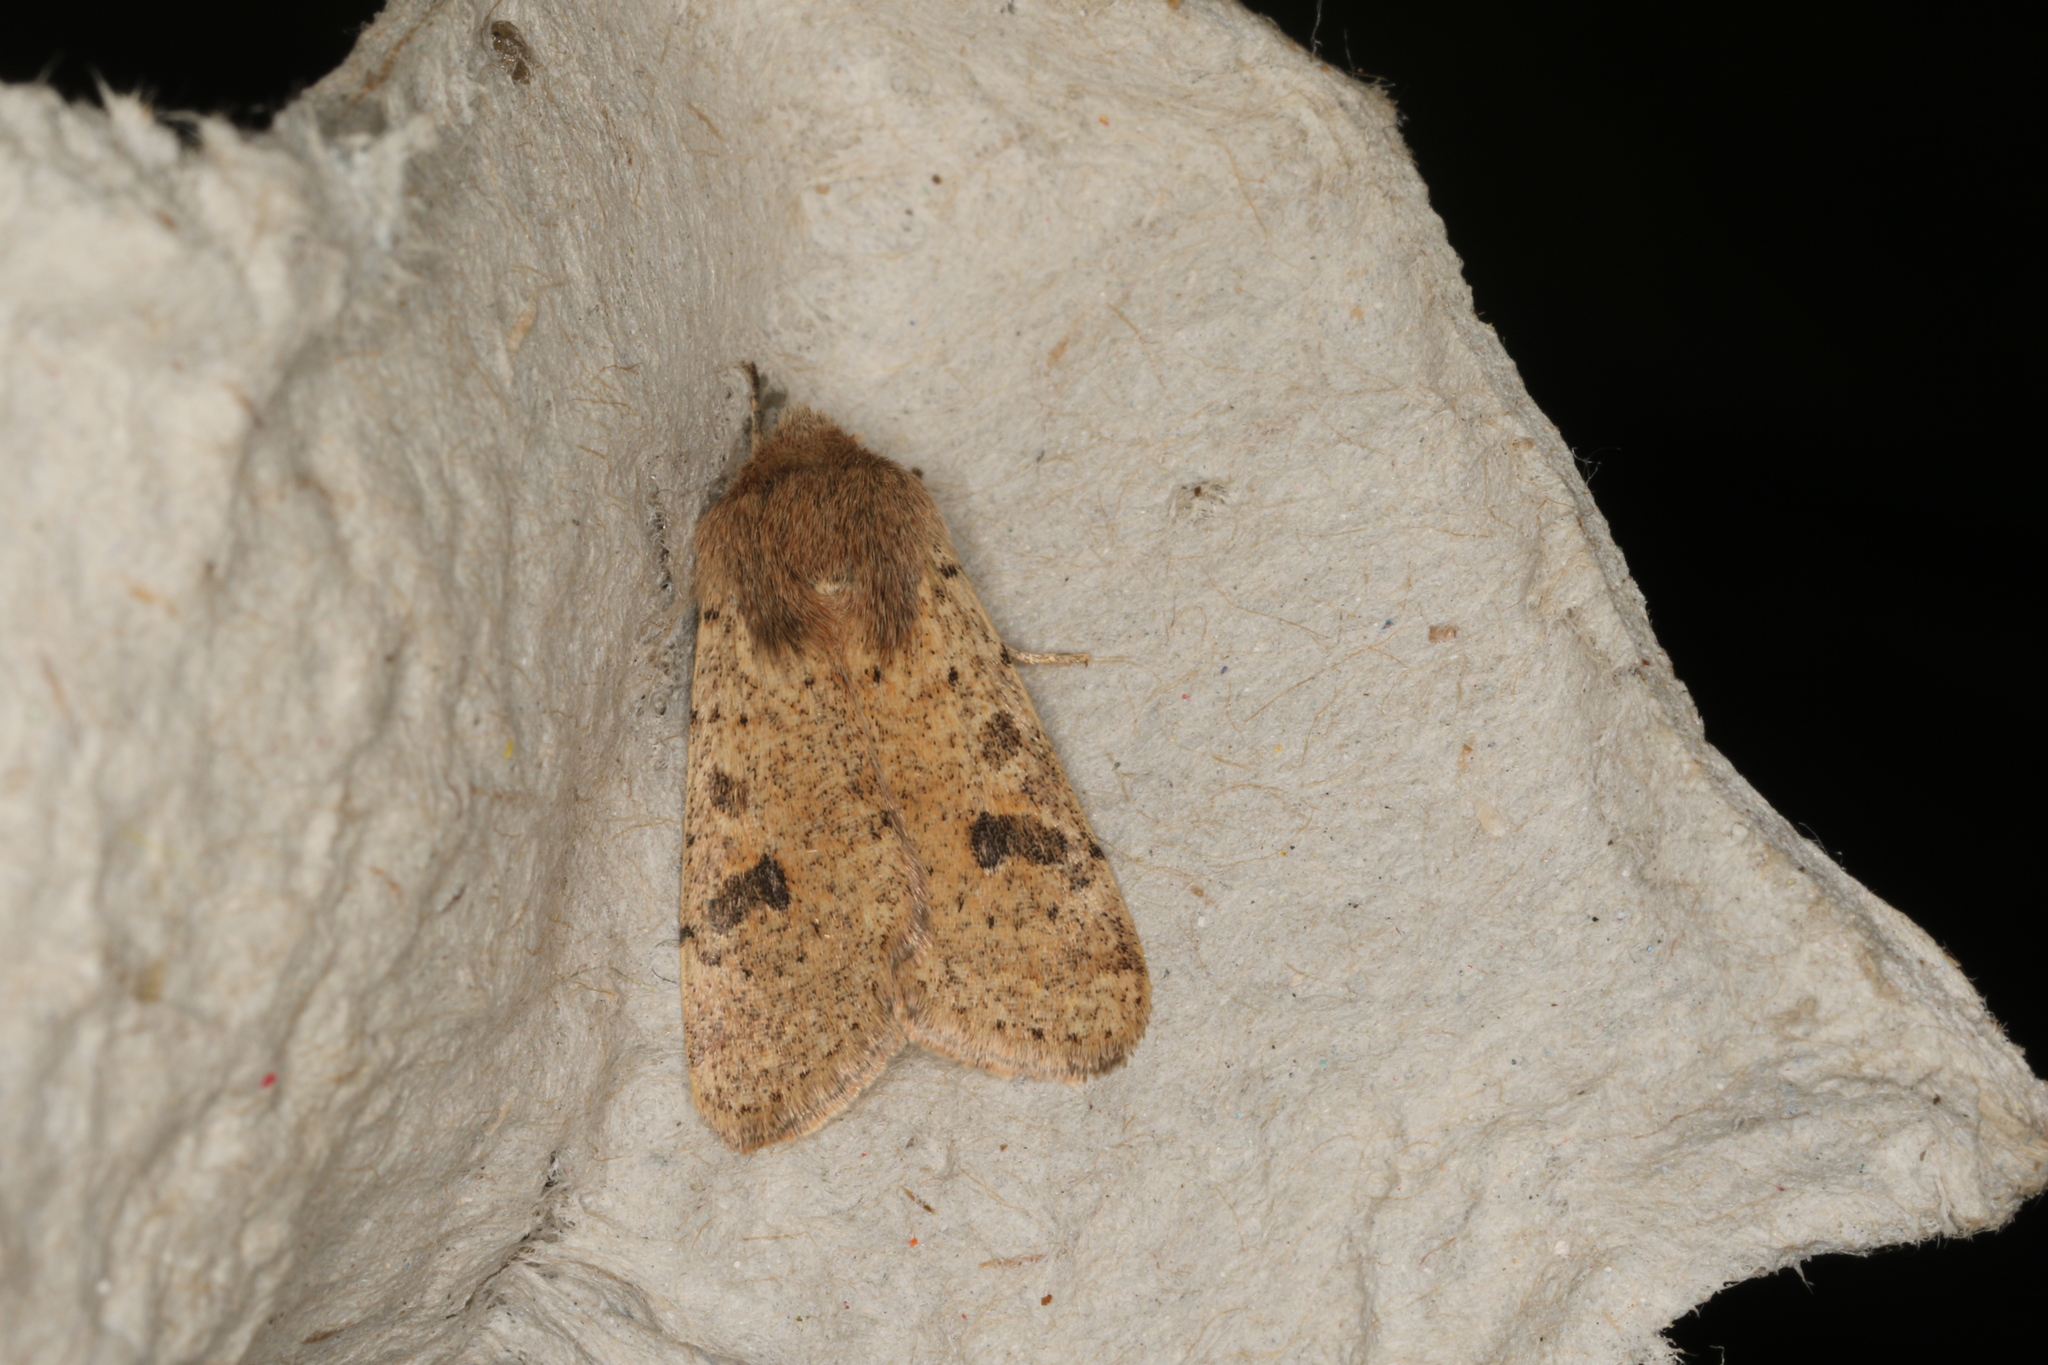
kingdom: Animalia
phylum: Arthropoda
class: Insecta
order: Lepidoptera
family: Noctuidae
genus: Orthosia
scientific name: Orthosia cruda
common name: Small quaker
